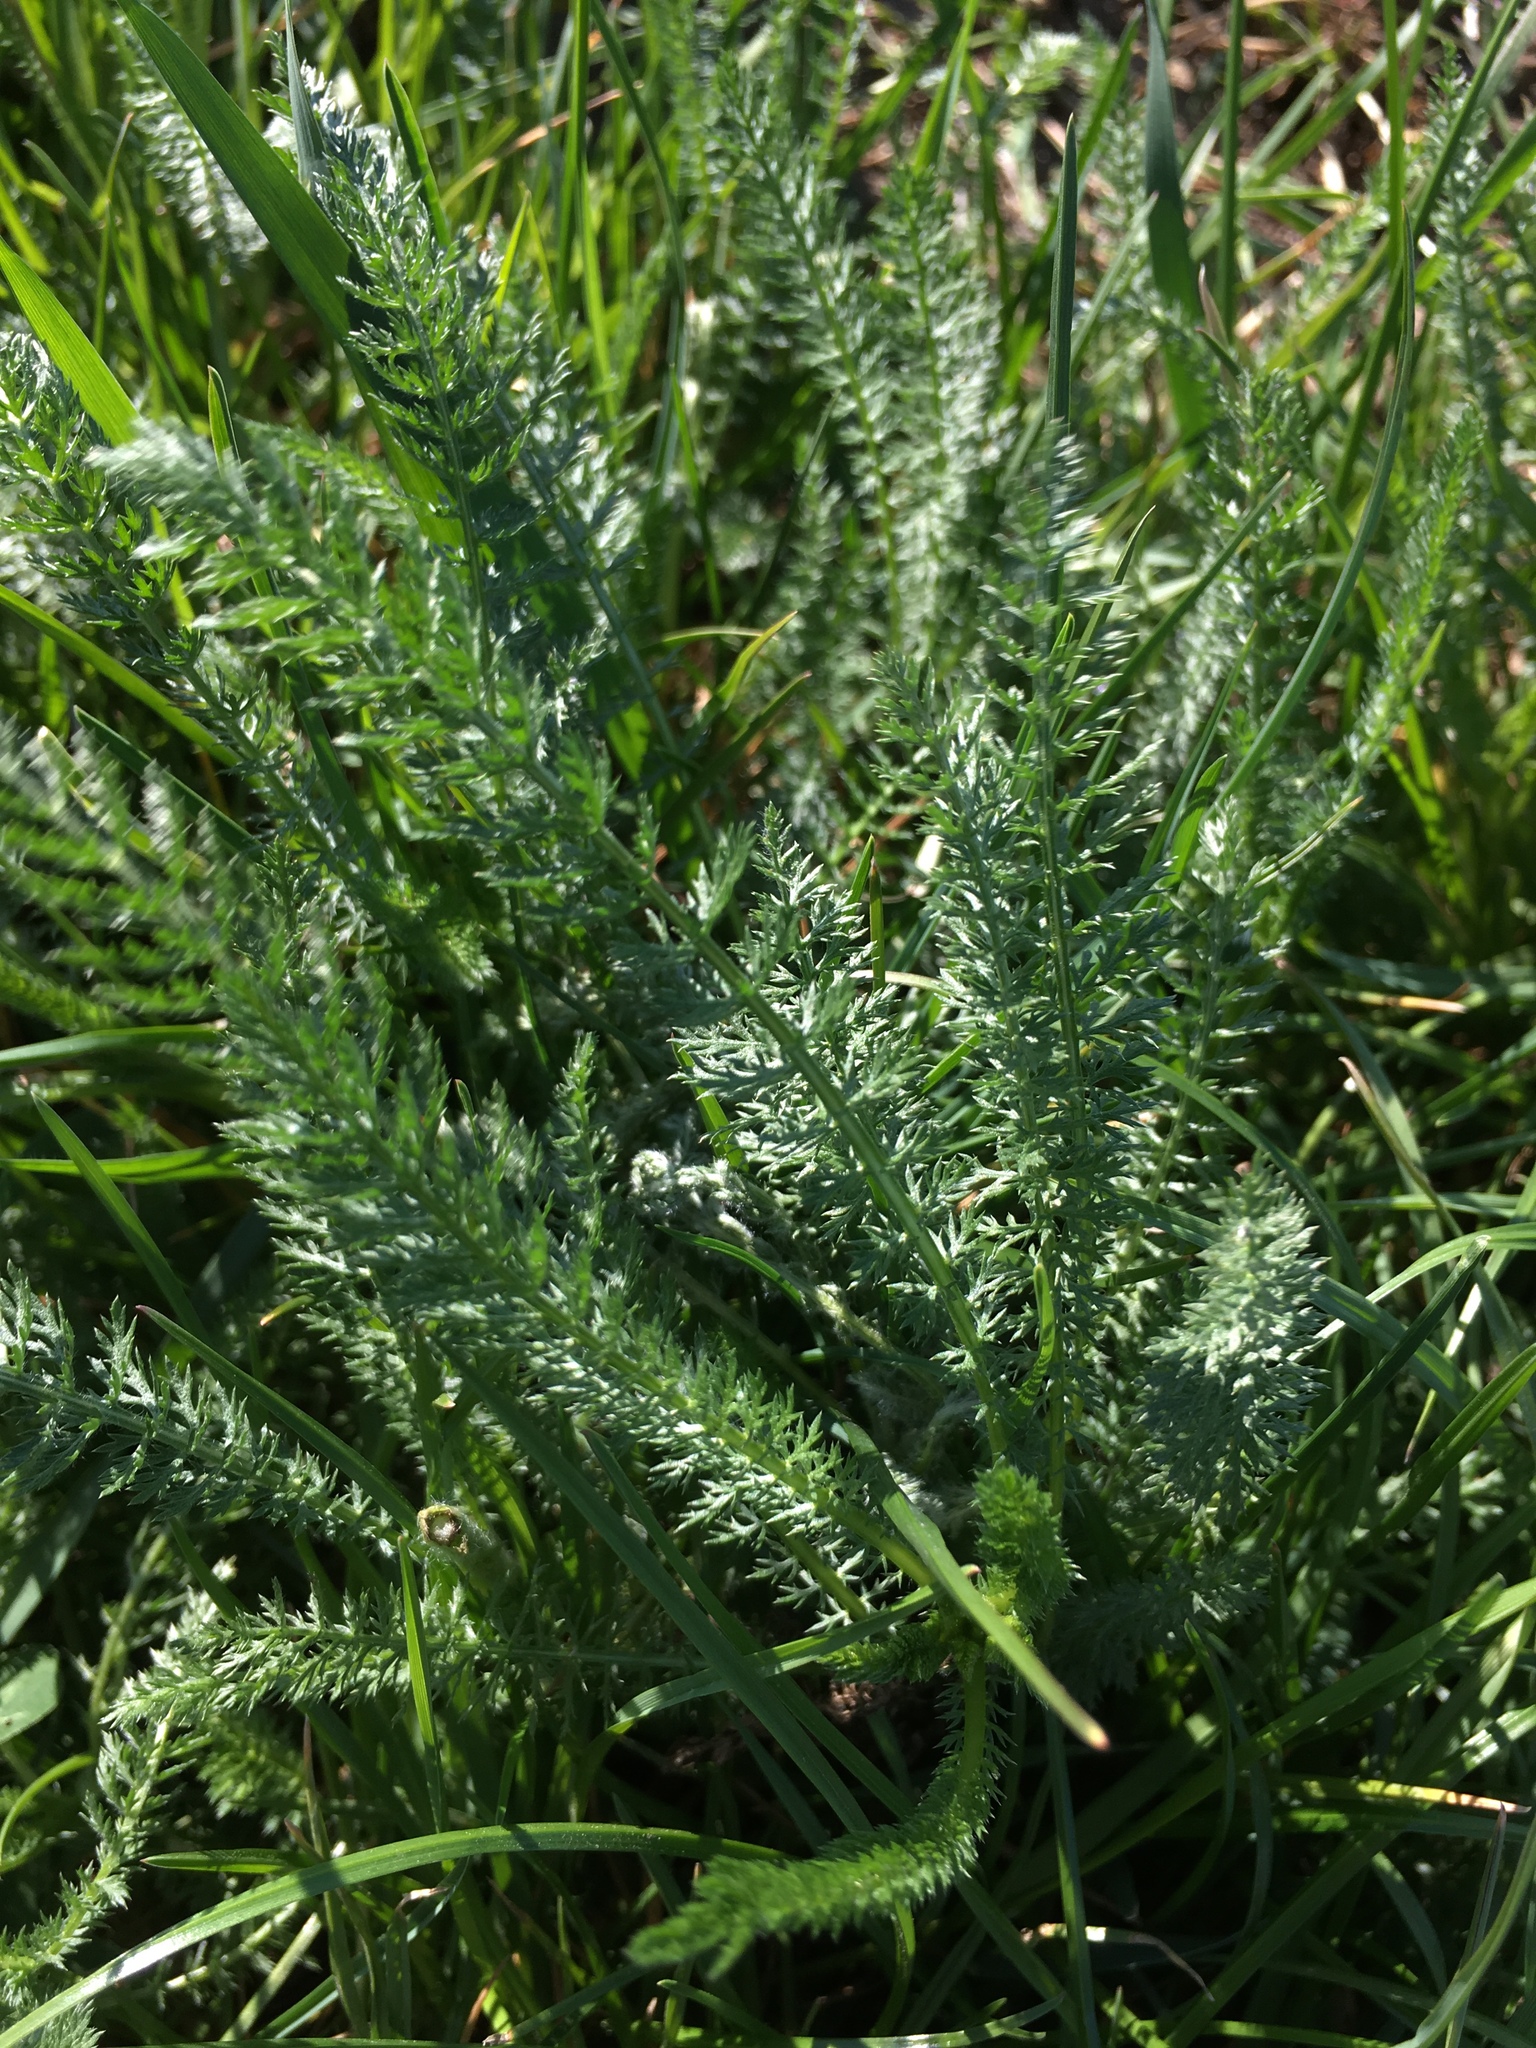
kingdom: Plantae
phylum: Tracheophyta
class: Magnoliopsida
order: Asterales
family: Asteraceae
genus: Achillea
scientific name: Achillea millefolium
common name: Yarrow
